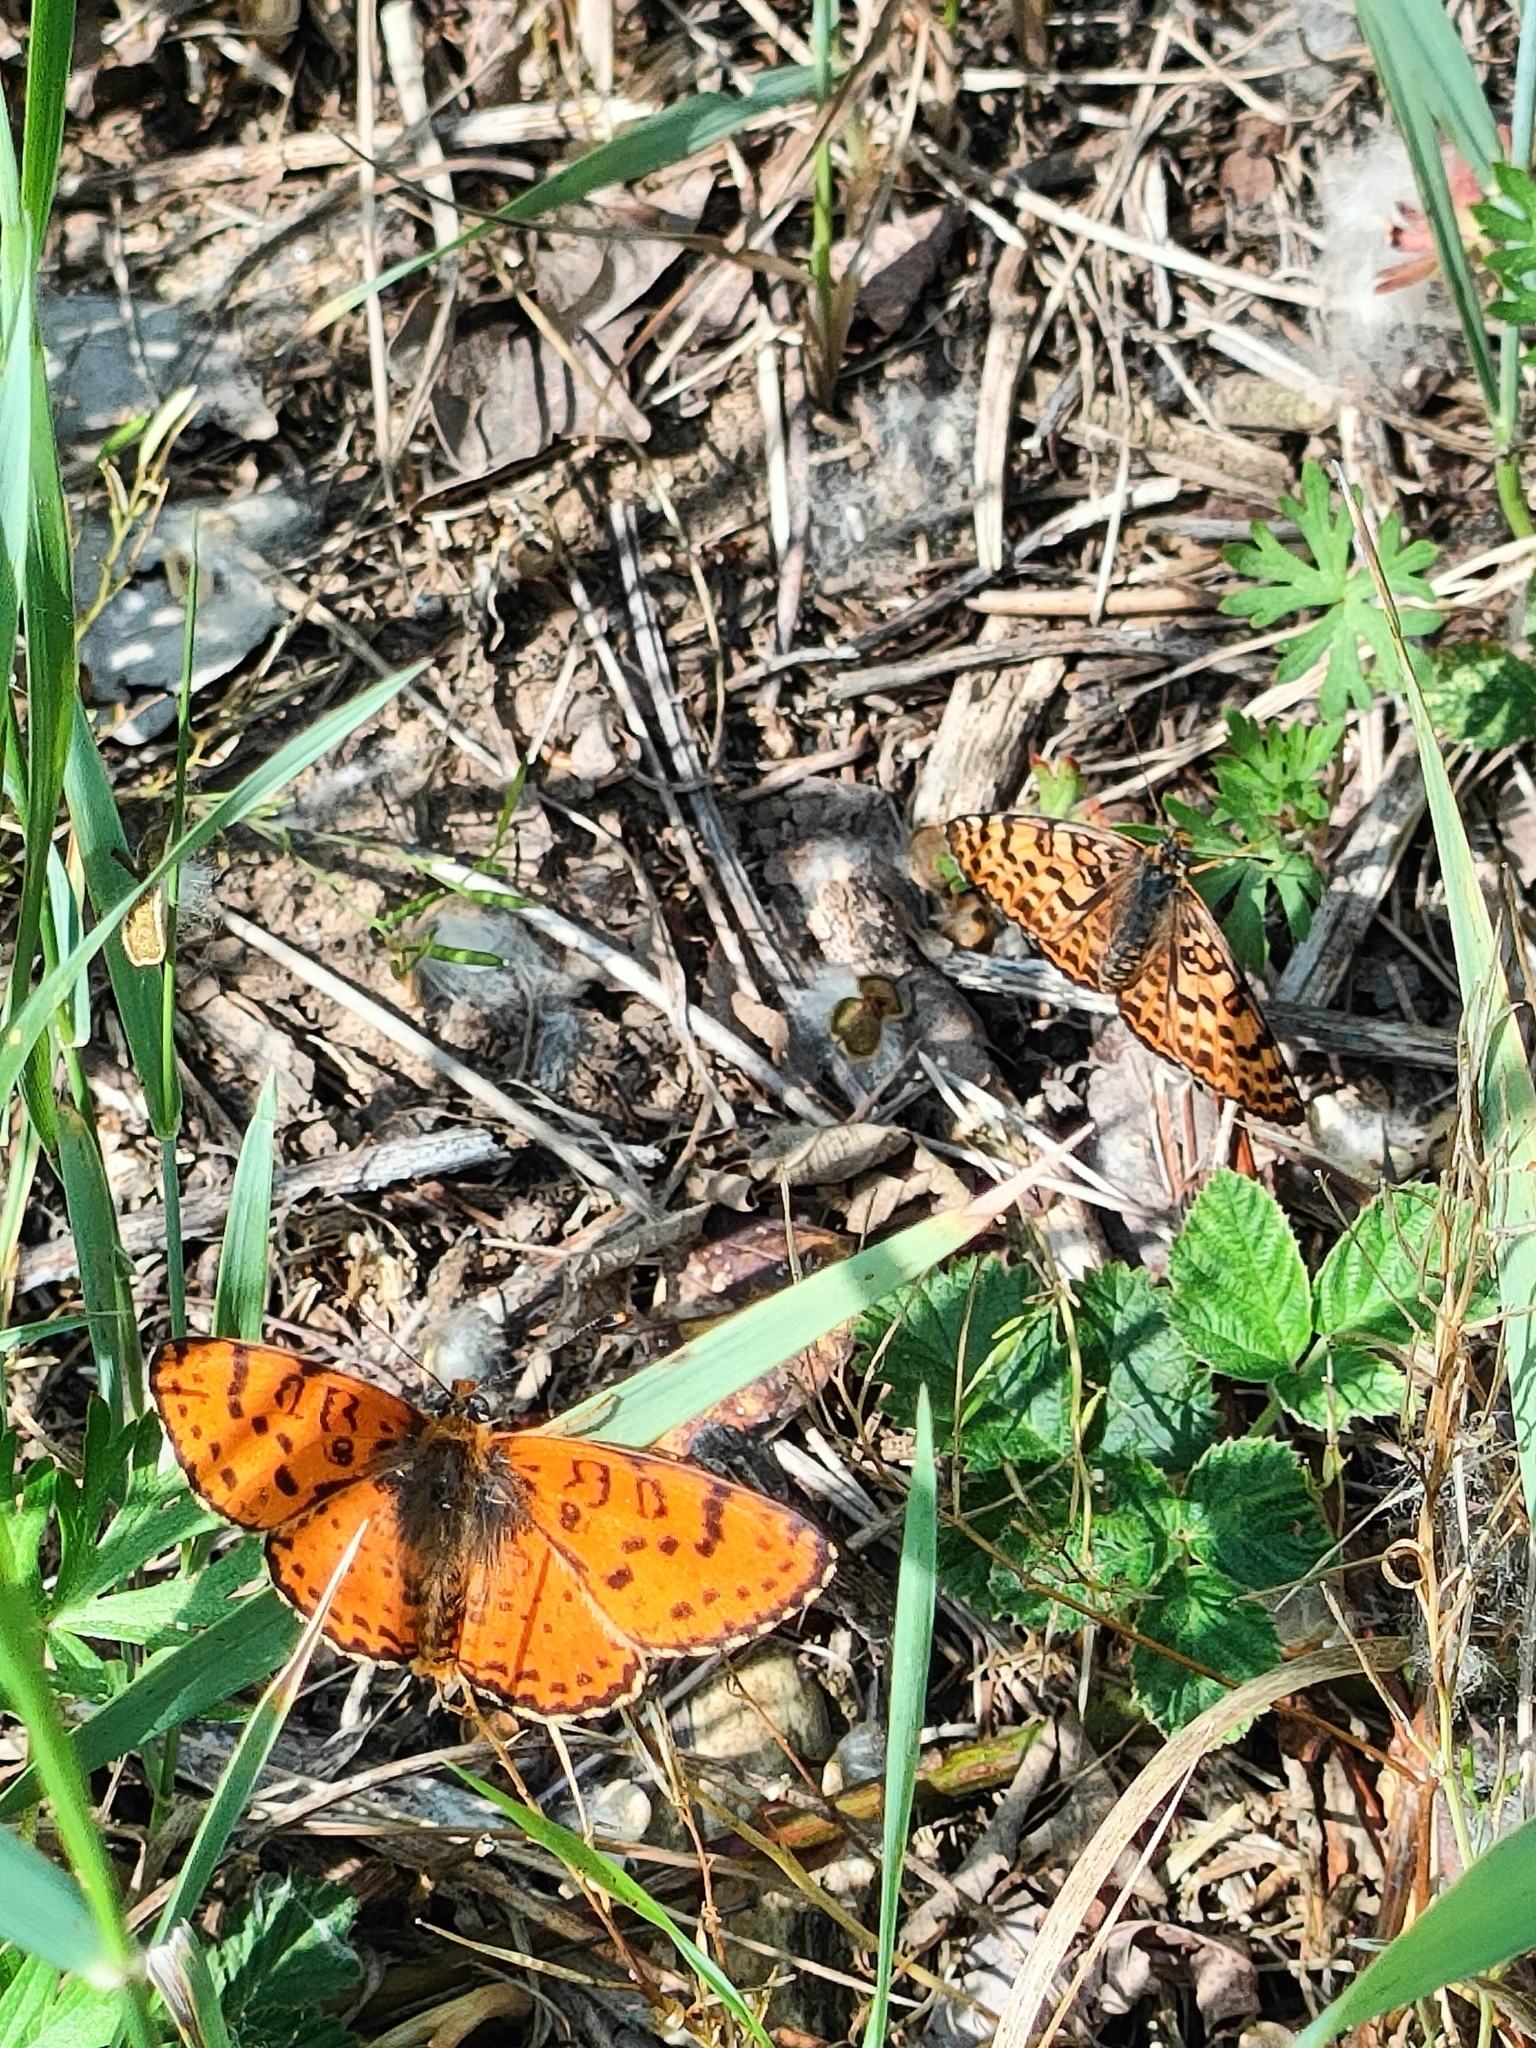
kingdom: Animalia
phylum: Arthropoda
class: Insecta
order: Lepidoptera
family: Nymphalidae
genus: Melitaea
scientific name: Melitaea didyma
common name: Spotted fritillary
